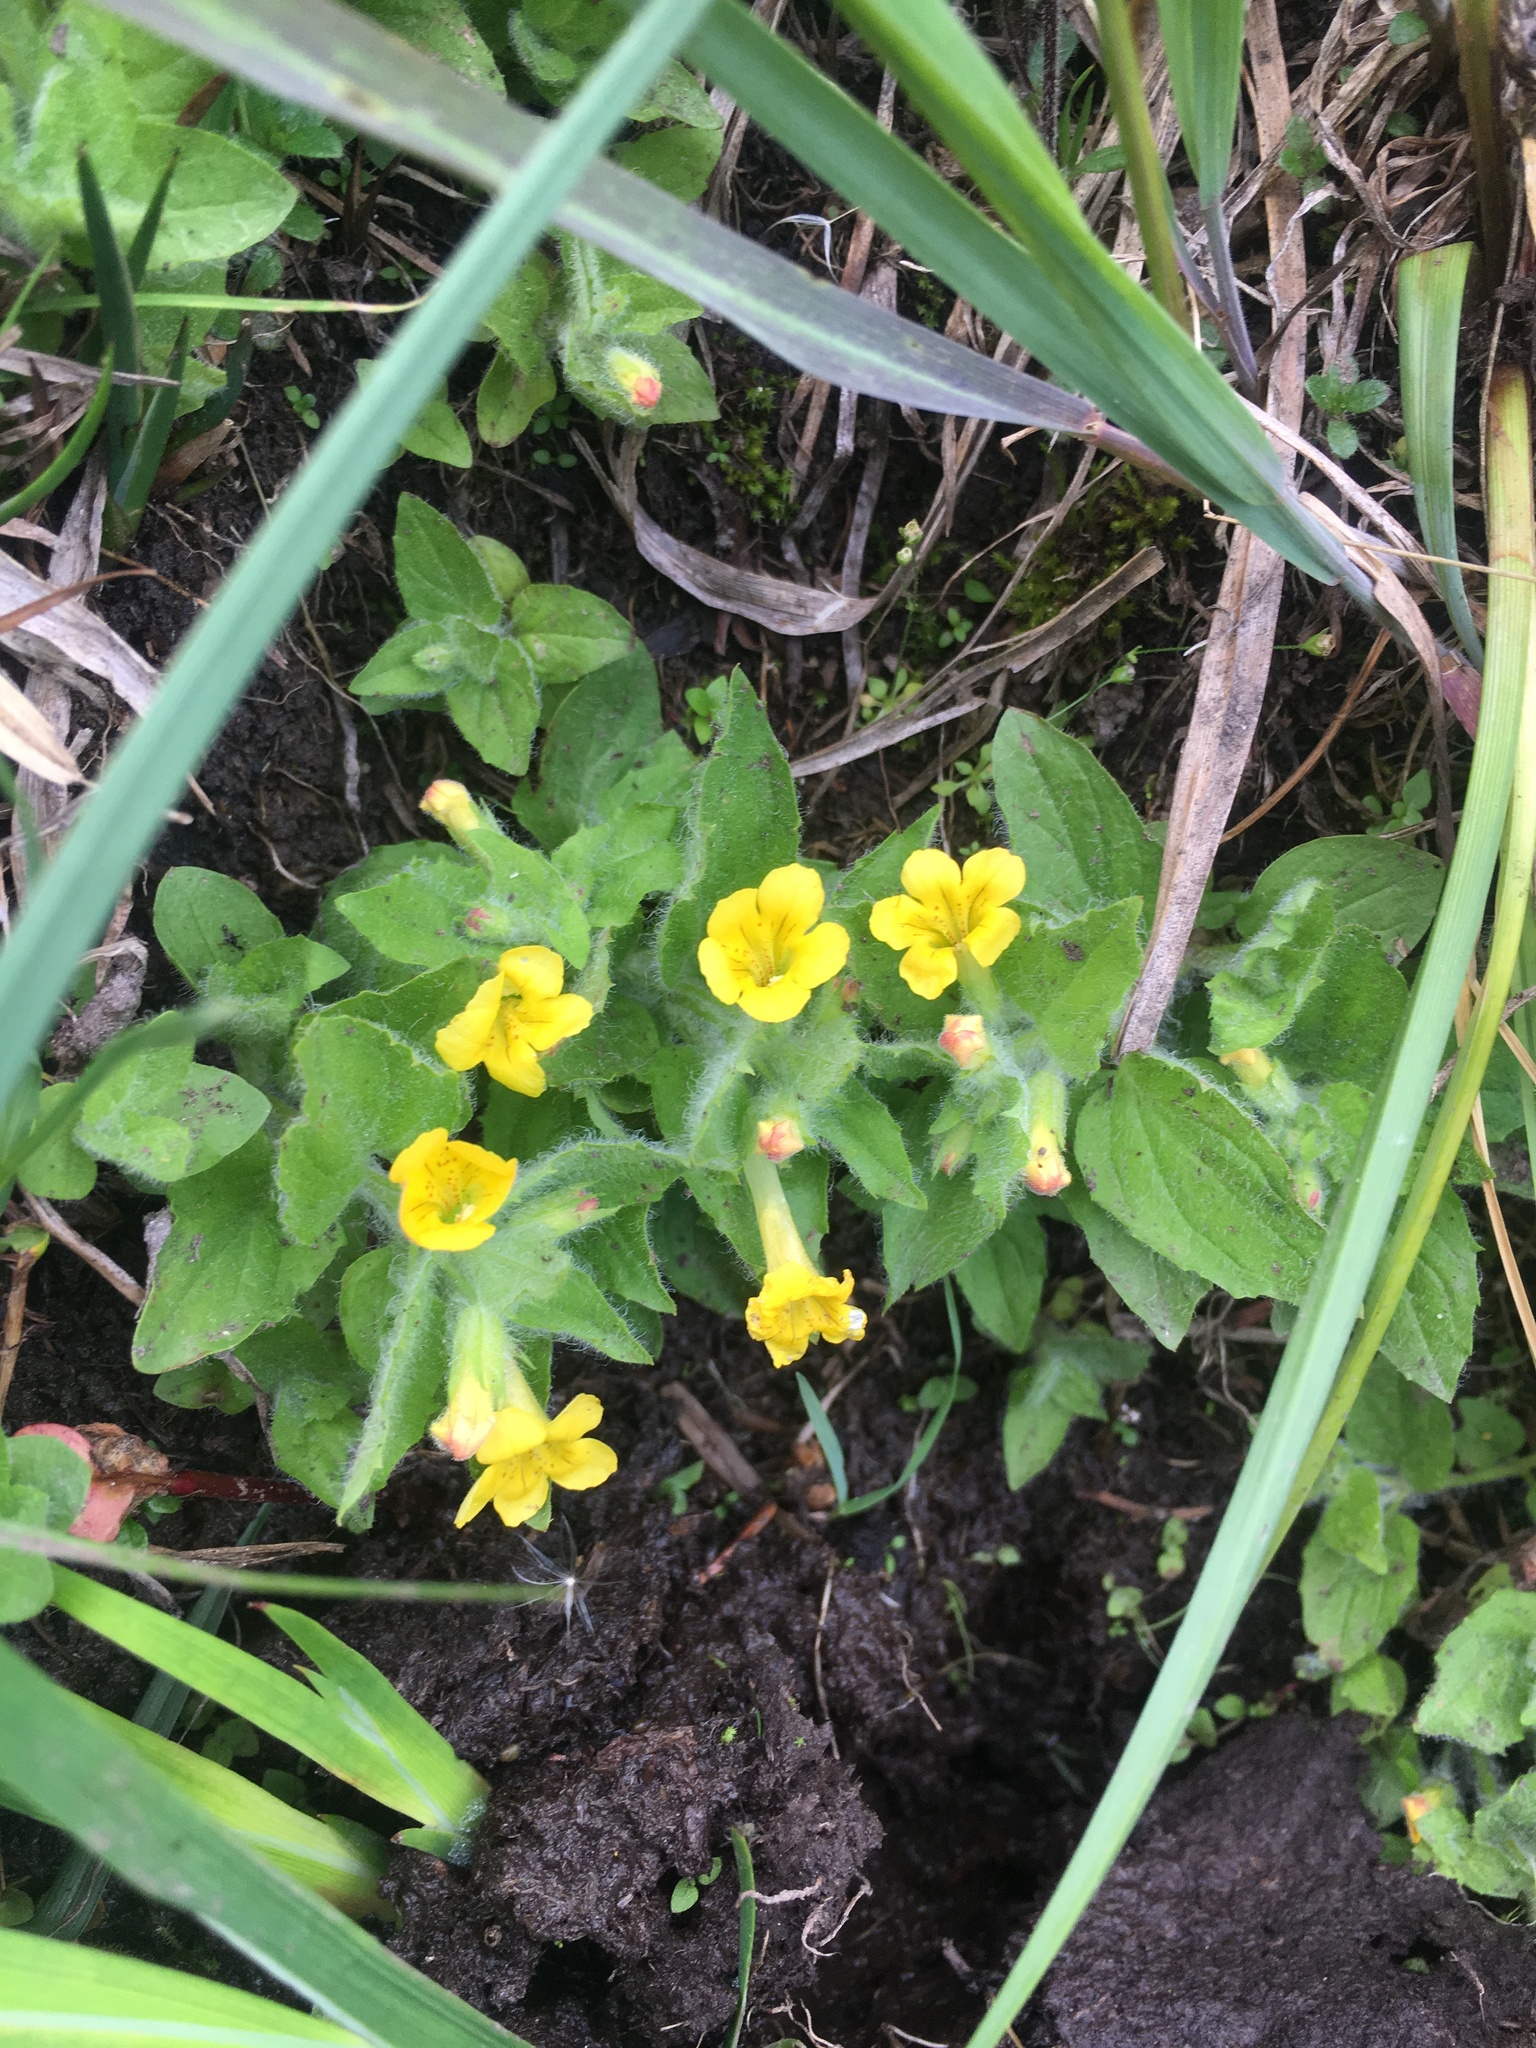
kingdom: Plantae
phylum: Tracheophyta
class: Magnoliopsida
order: Lamiales
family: Phrymaceae
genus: Erythranthe
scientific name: Erythranthe moschata
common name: Muskflower
